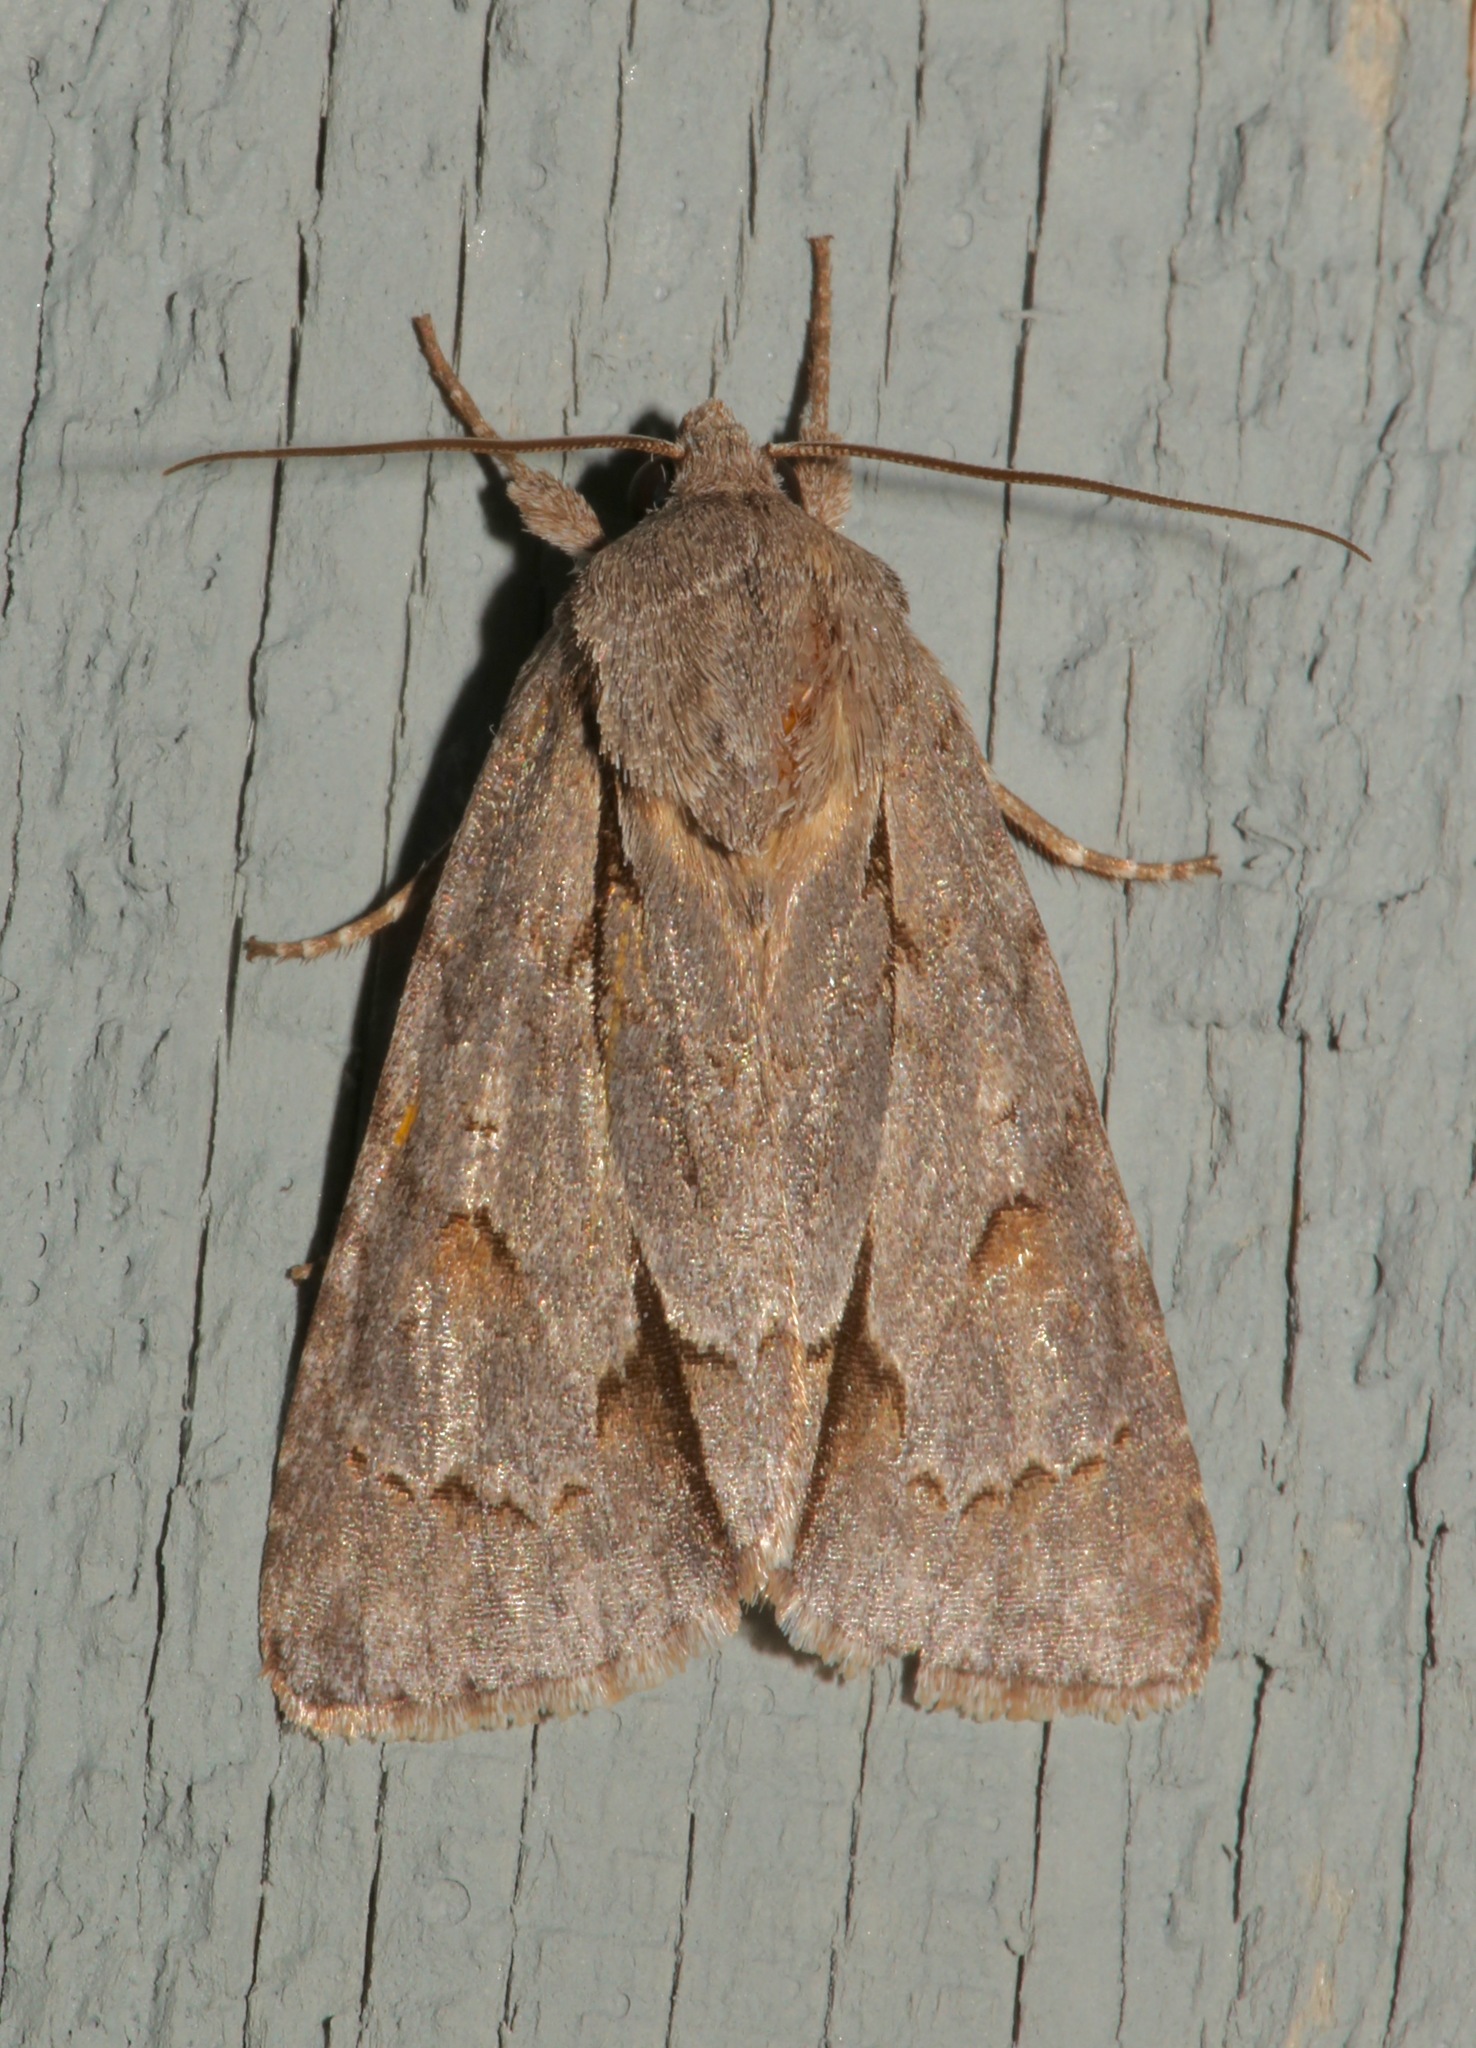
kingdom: Animalia
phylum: Arthropoda
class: Insecta
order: Lepidoptera
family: Noctuidae
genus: Acronicta
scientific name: Acronicta tritona
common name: Triton dagger
